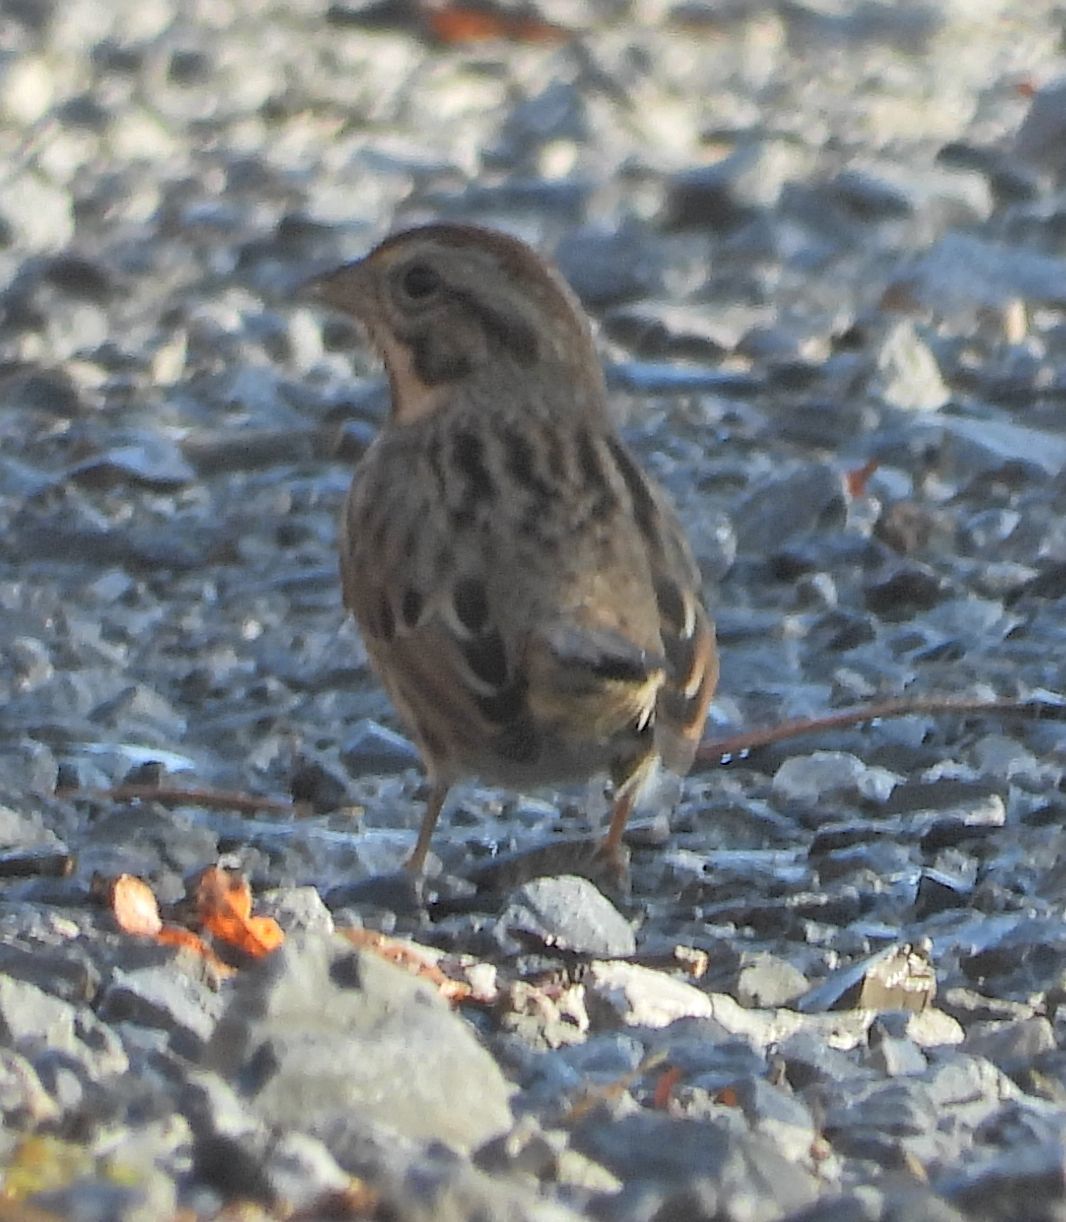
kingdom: Animalia
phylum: Chordata
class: Aves
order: Passeriformes
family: Passerellidae
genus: Melospiza
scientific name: Melospiza melodia
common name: Song sparrow
